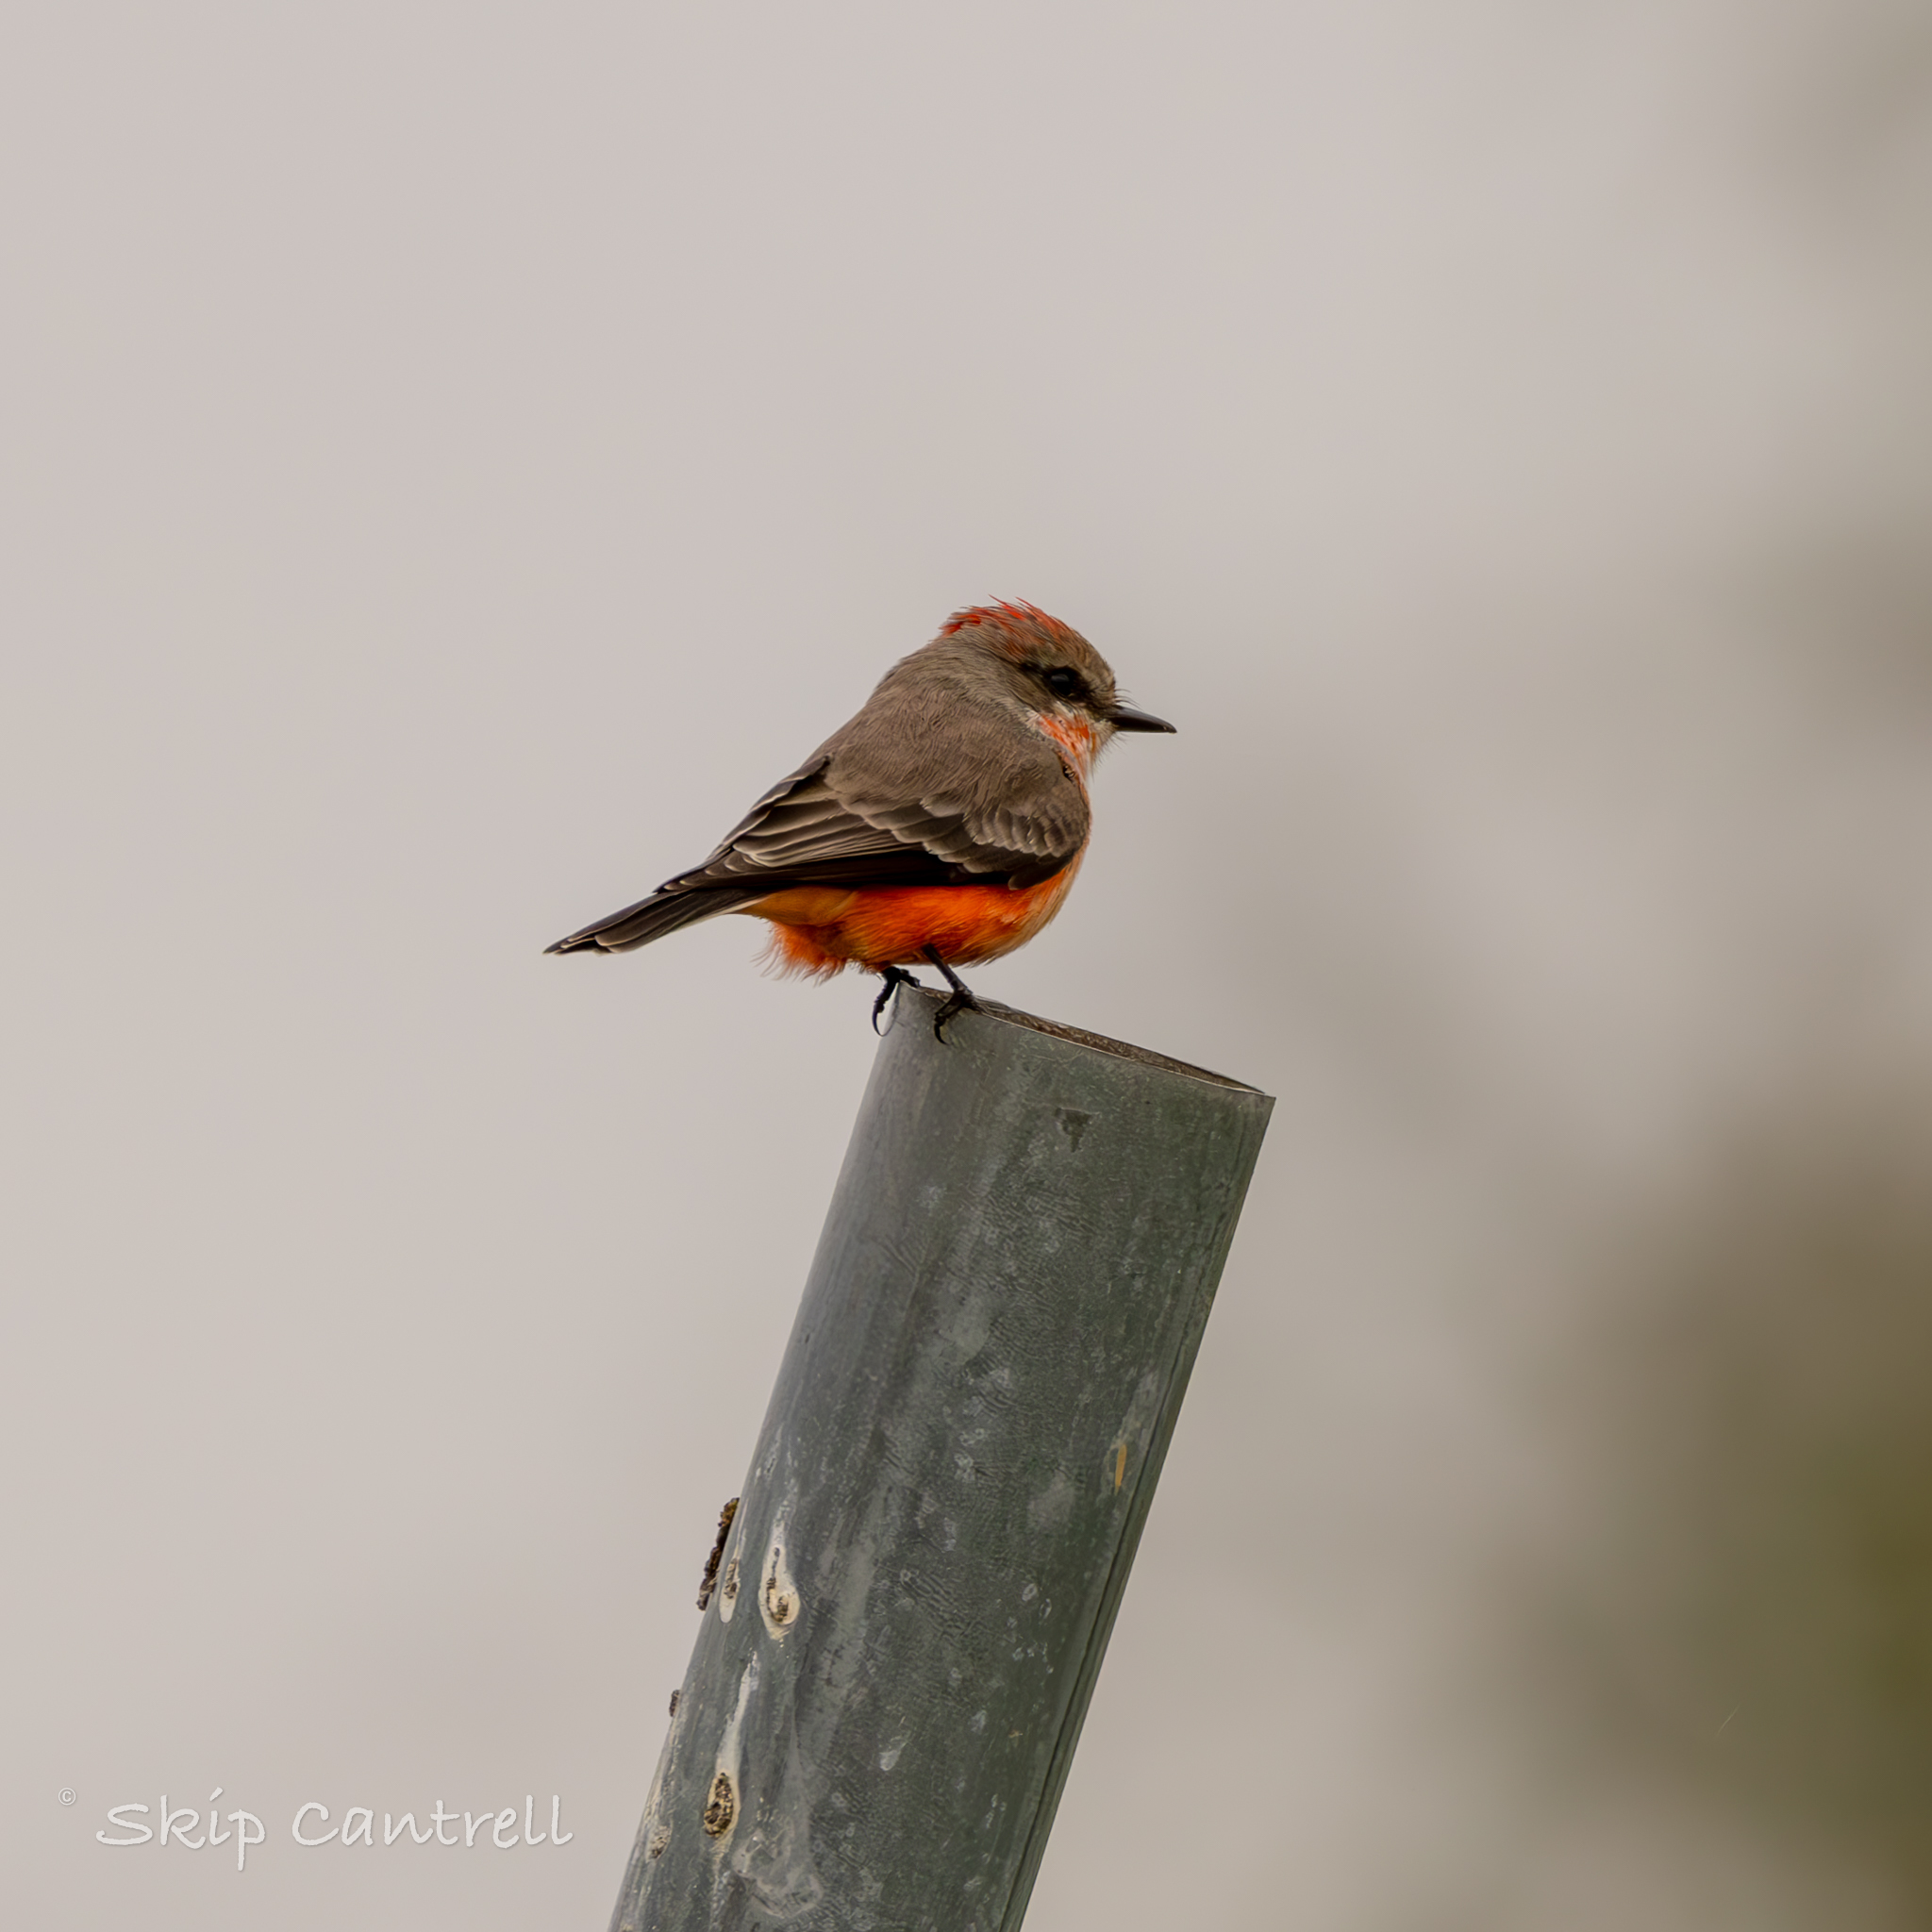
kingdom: Animalia
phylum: Chordata
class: Aves
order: Passeriformes
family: Tyrannidae
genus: Pyrocephalus
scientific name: Pyrocephalus rubinus
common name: Vermilion flycatcher
